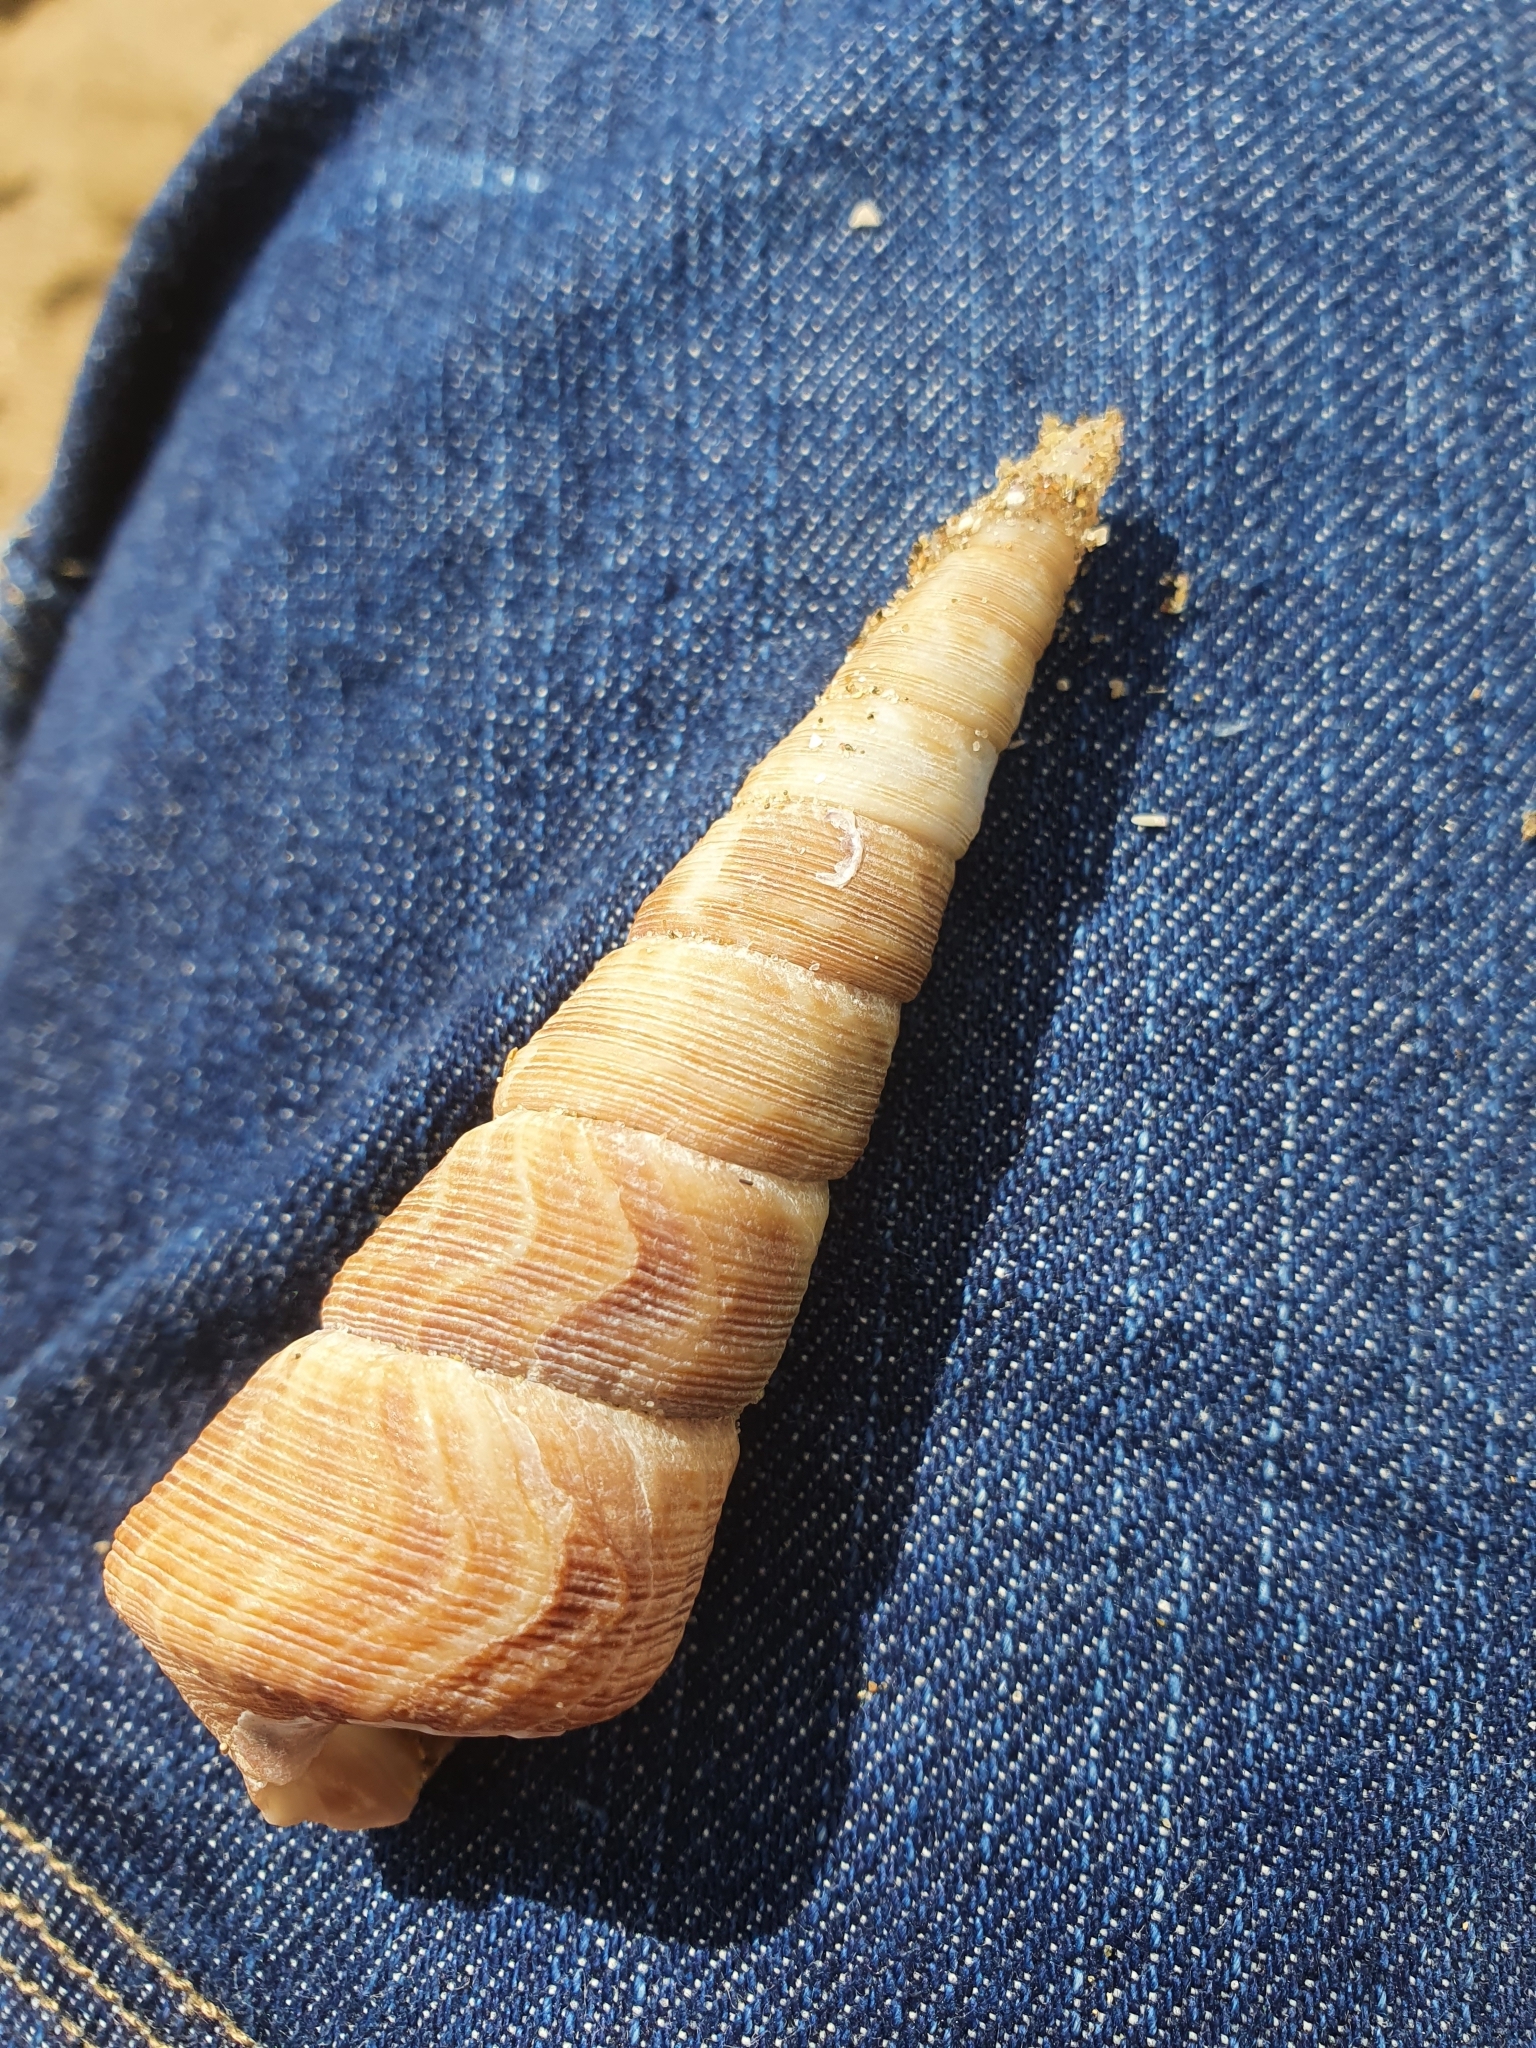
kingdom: Animalia
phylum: Mollusca
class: Gastropoda
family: Turritellidae
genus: Maoricolpus
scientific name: Maoricolpus roseus
